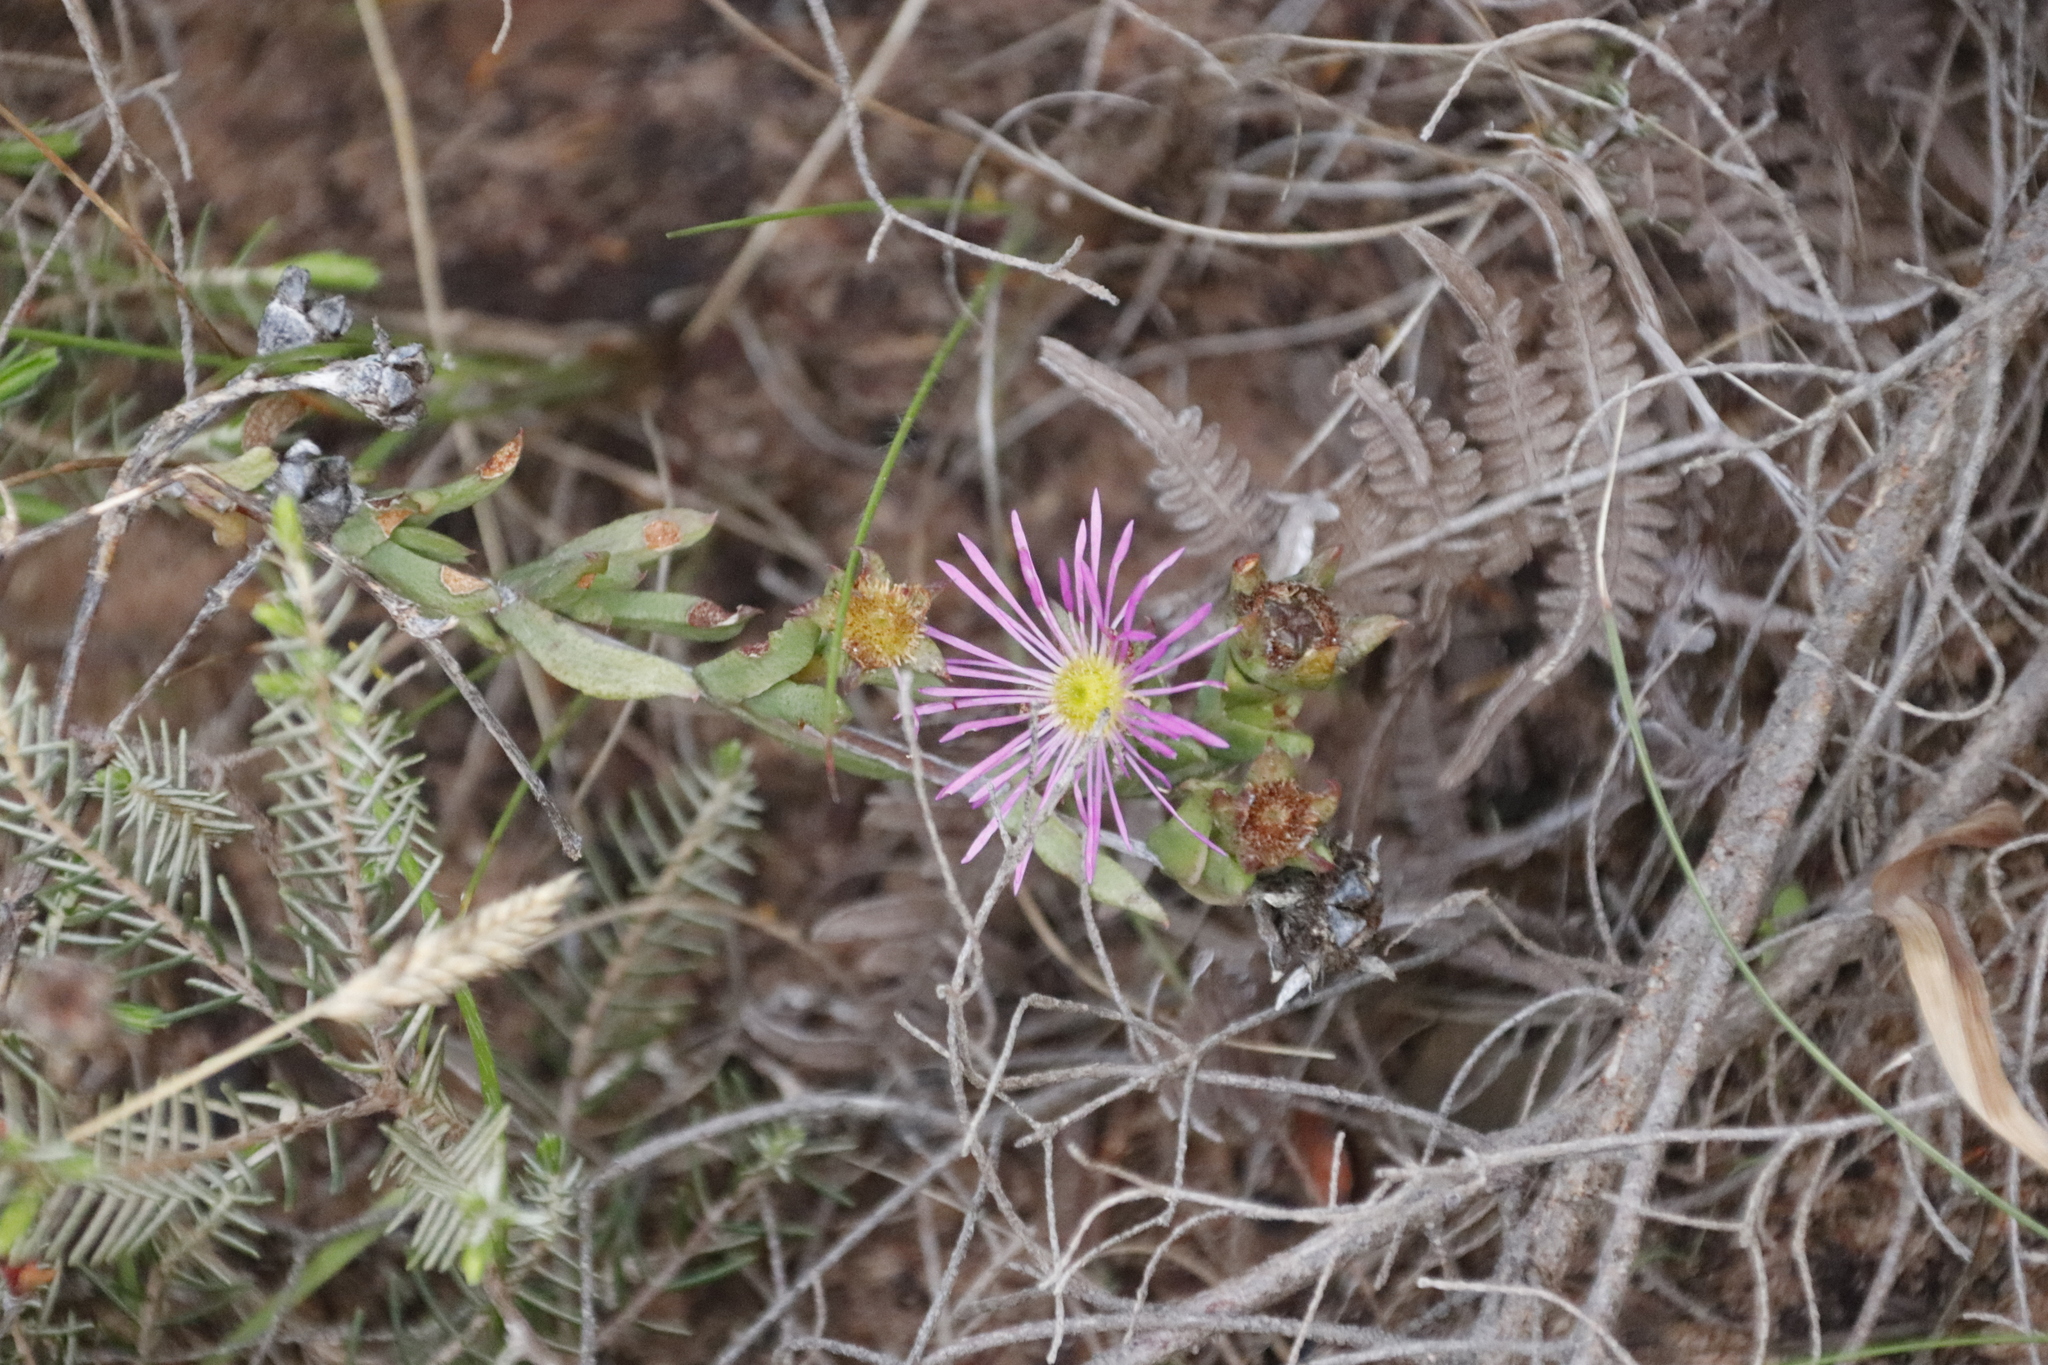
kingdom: Plantae
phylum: Tracheophyta
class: Magnoliopsida
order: Caryophyllales
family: Aizoaceae
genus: Erepsia
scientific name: Erepsia bracteata
